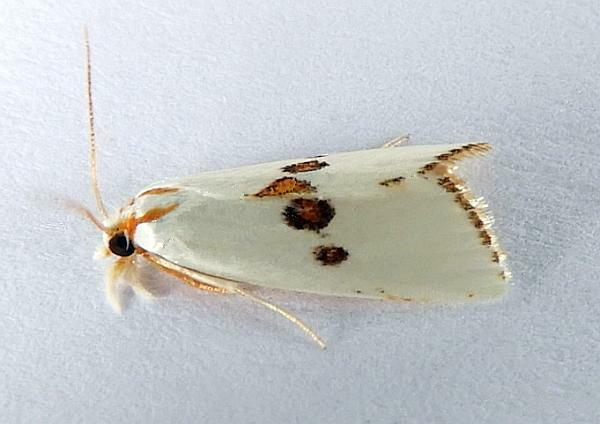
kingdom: Animalia
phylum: Arthropoda
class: Insecta
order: Lepidoptera
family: Crambidae
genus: Crambus
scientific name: Crambus tripsacas
